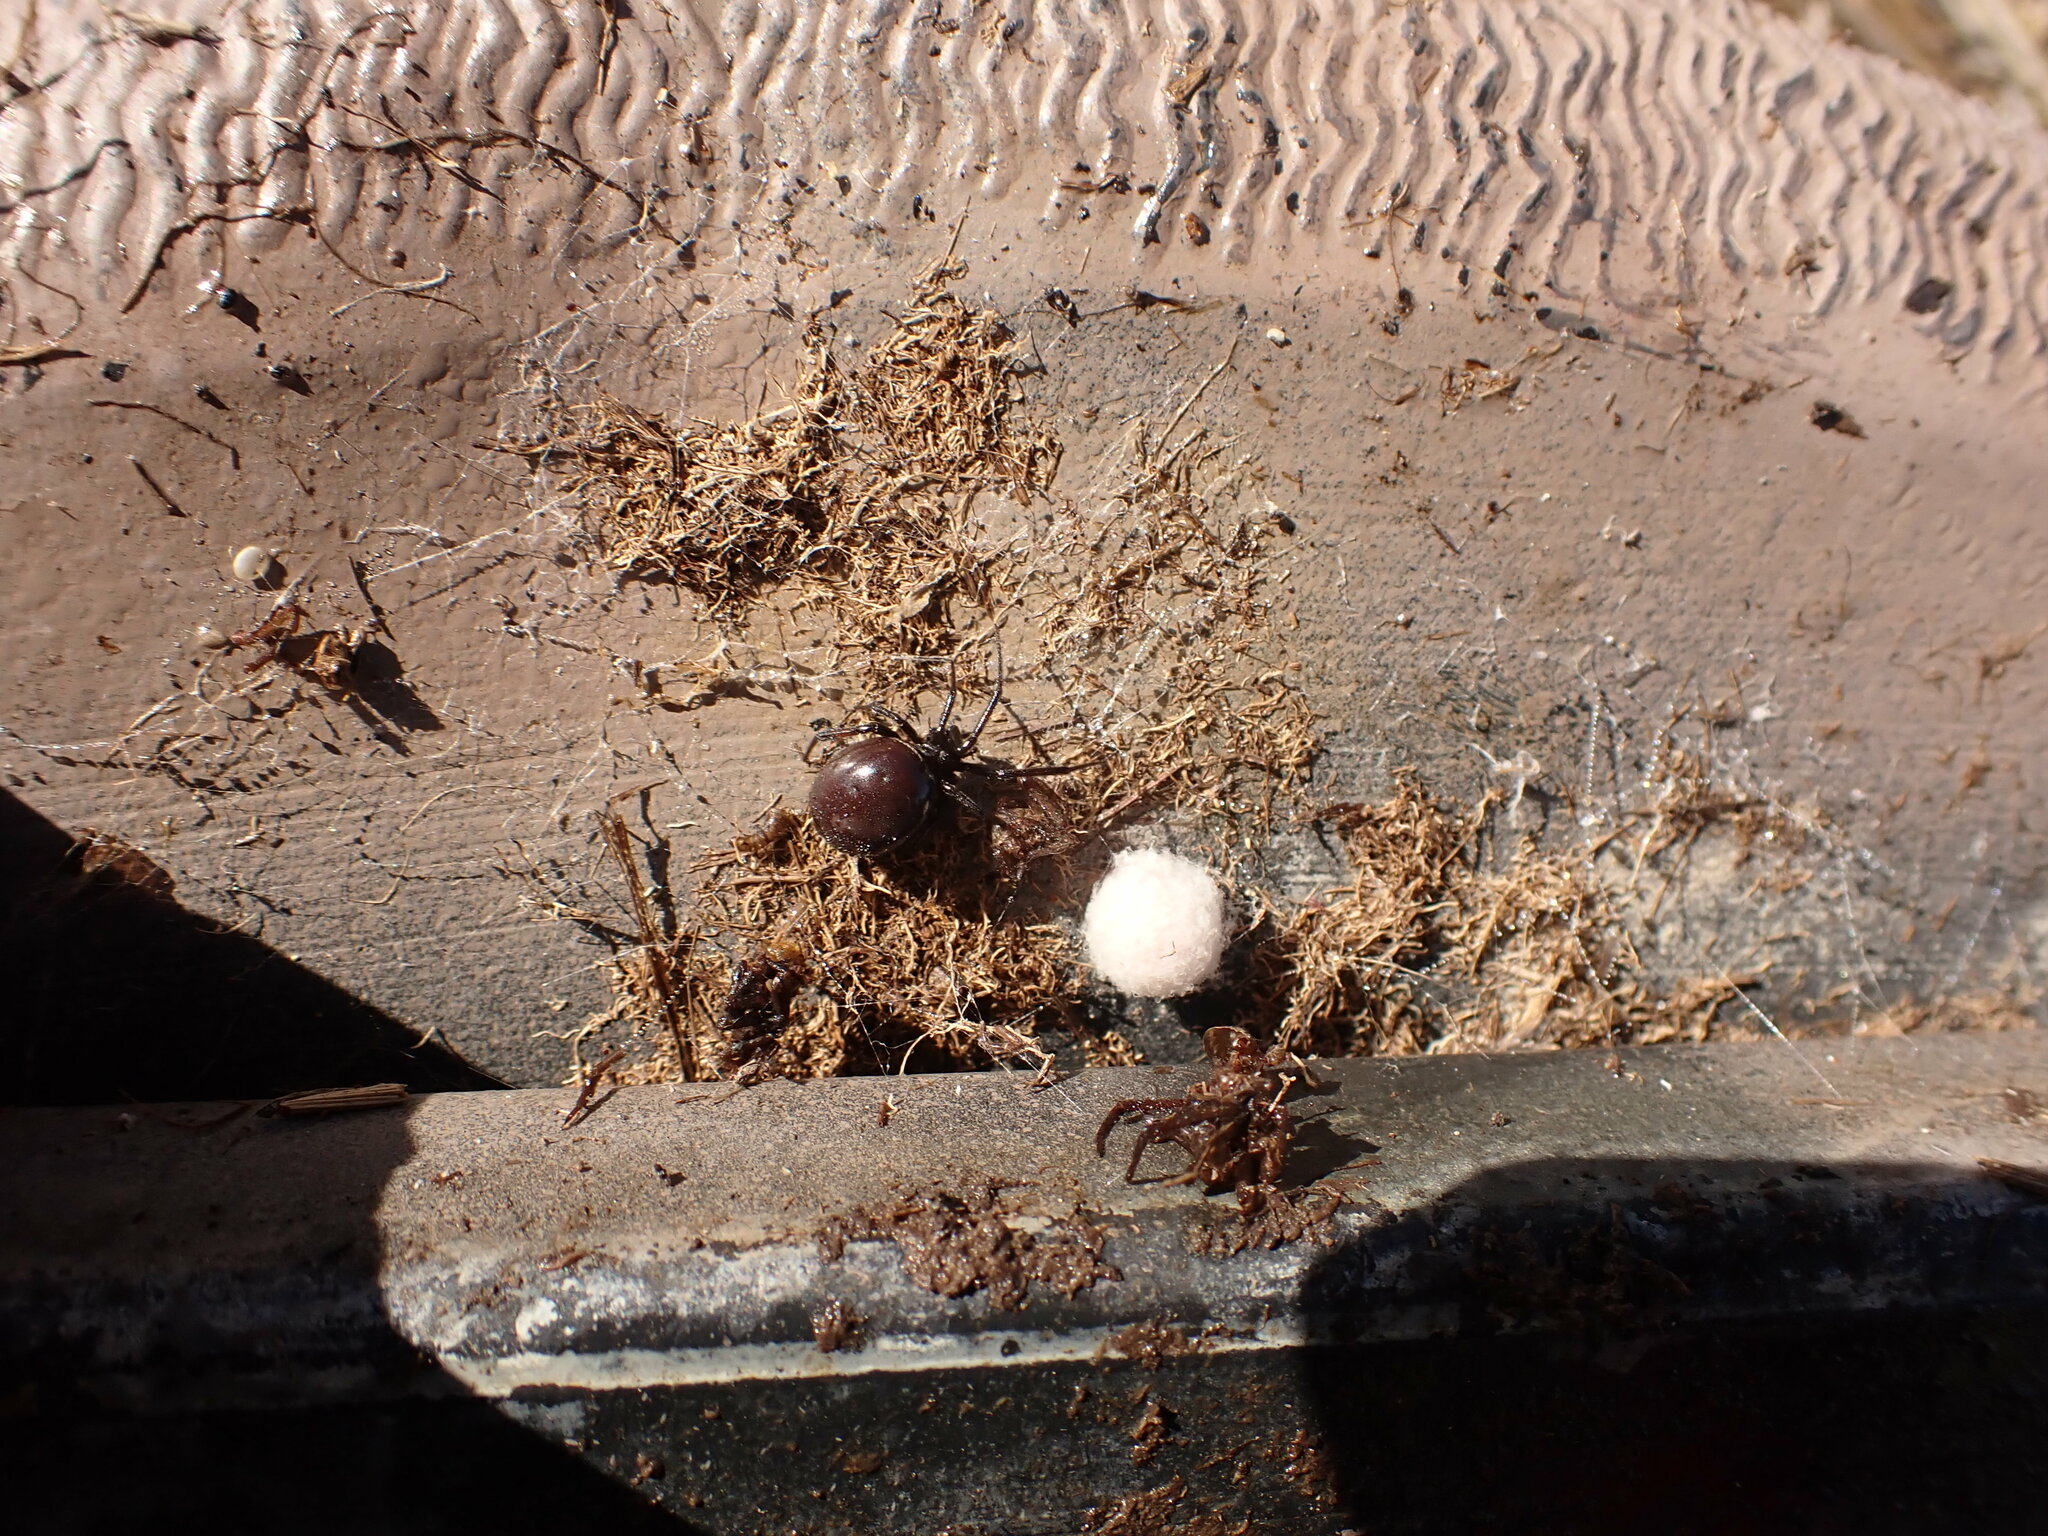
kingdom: Animalia
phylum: Arthropoda
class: Arachnida
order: Araneae
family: Theridiidae
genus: Steatoda
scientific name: Steatoda capensis
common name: Cobweb weaver
